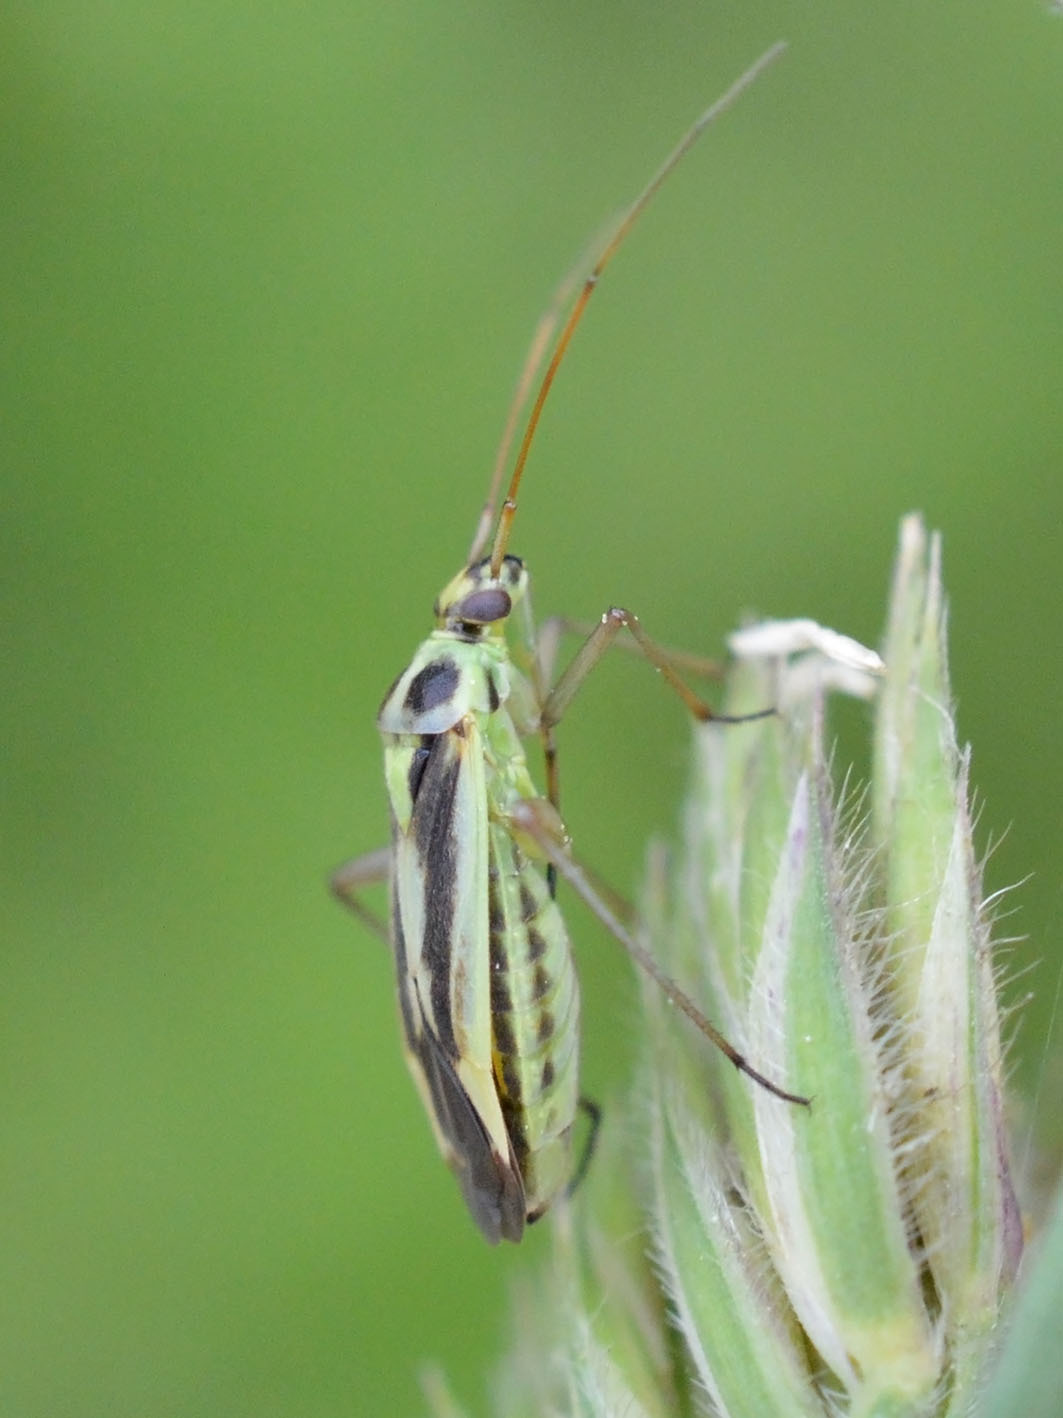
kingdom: Animalia
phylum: Arthropoda
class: Insecta
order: Hemiptera
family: Miridae
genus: Stenotus
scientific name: Stenotus binotatus
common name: Plant bug
